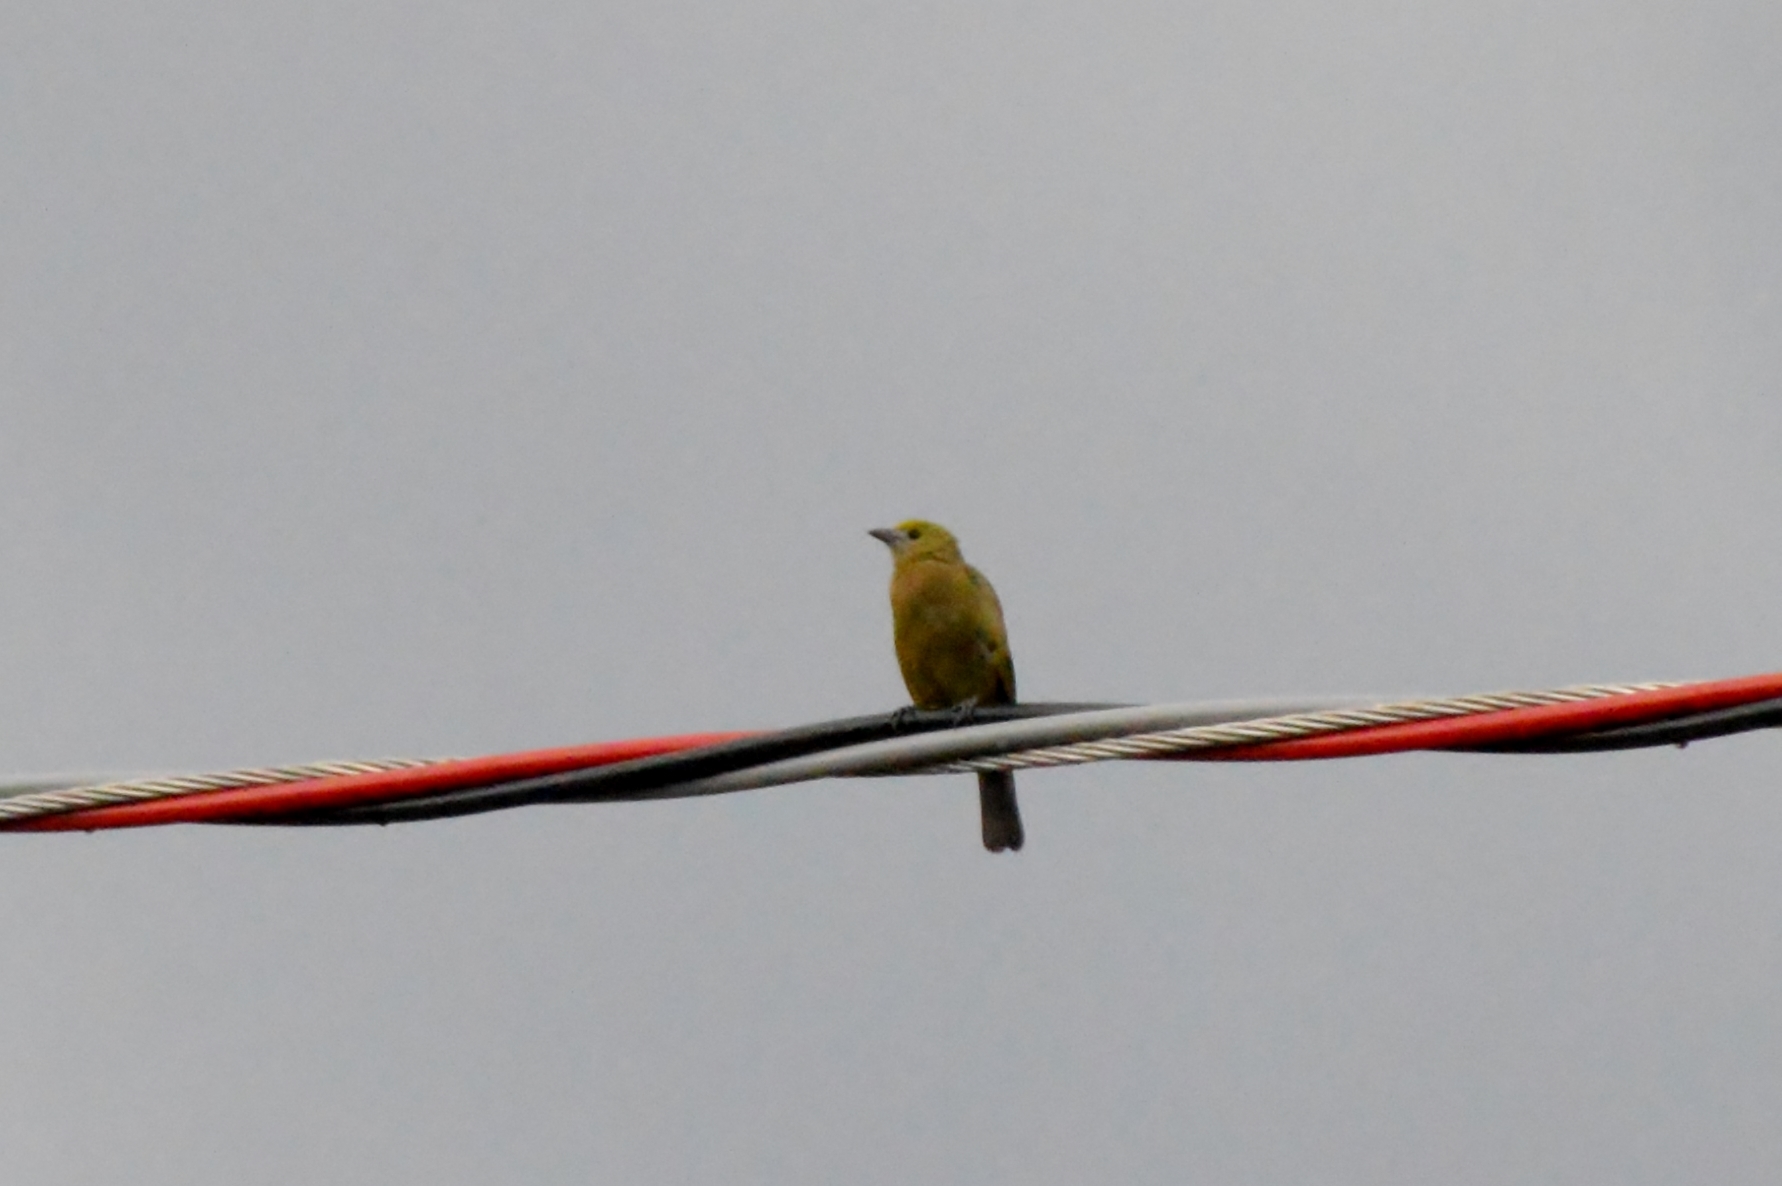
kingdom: Animalia
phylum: Chordata
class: Aves
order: Passeriformes
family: Thraupidae
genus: Thraupis
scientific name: Thraupis palmarum
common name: Palm tanager
